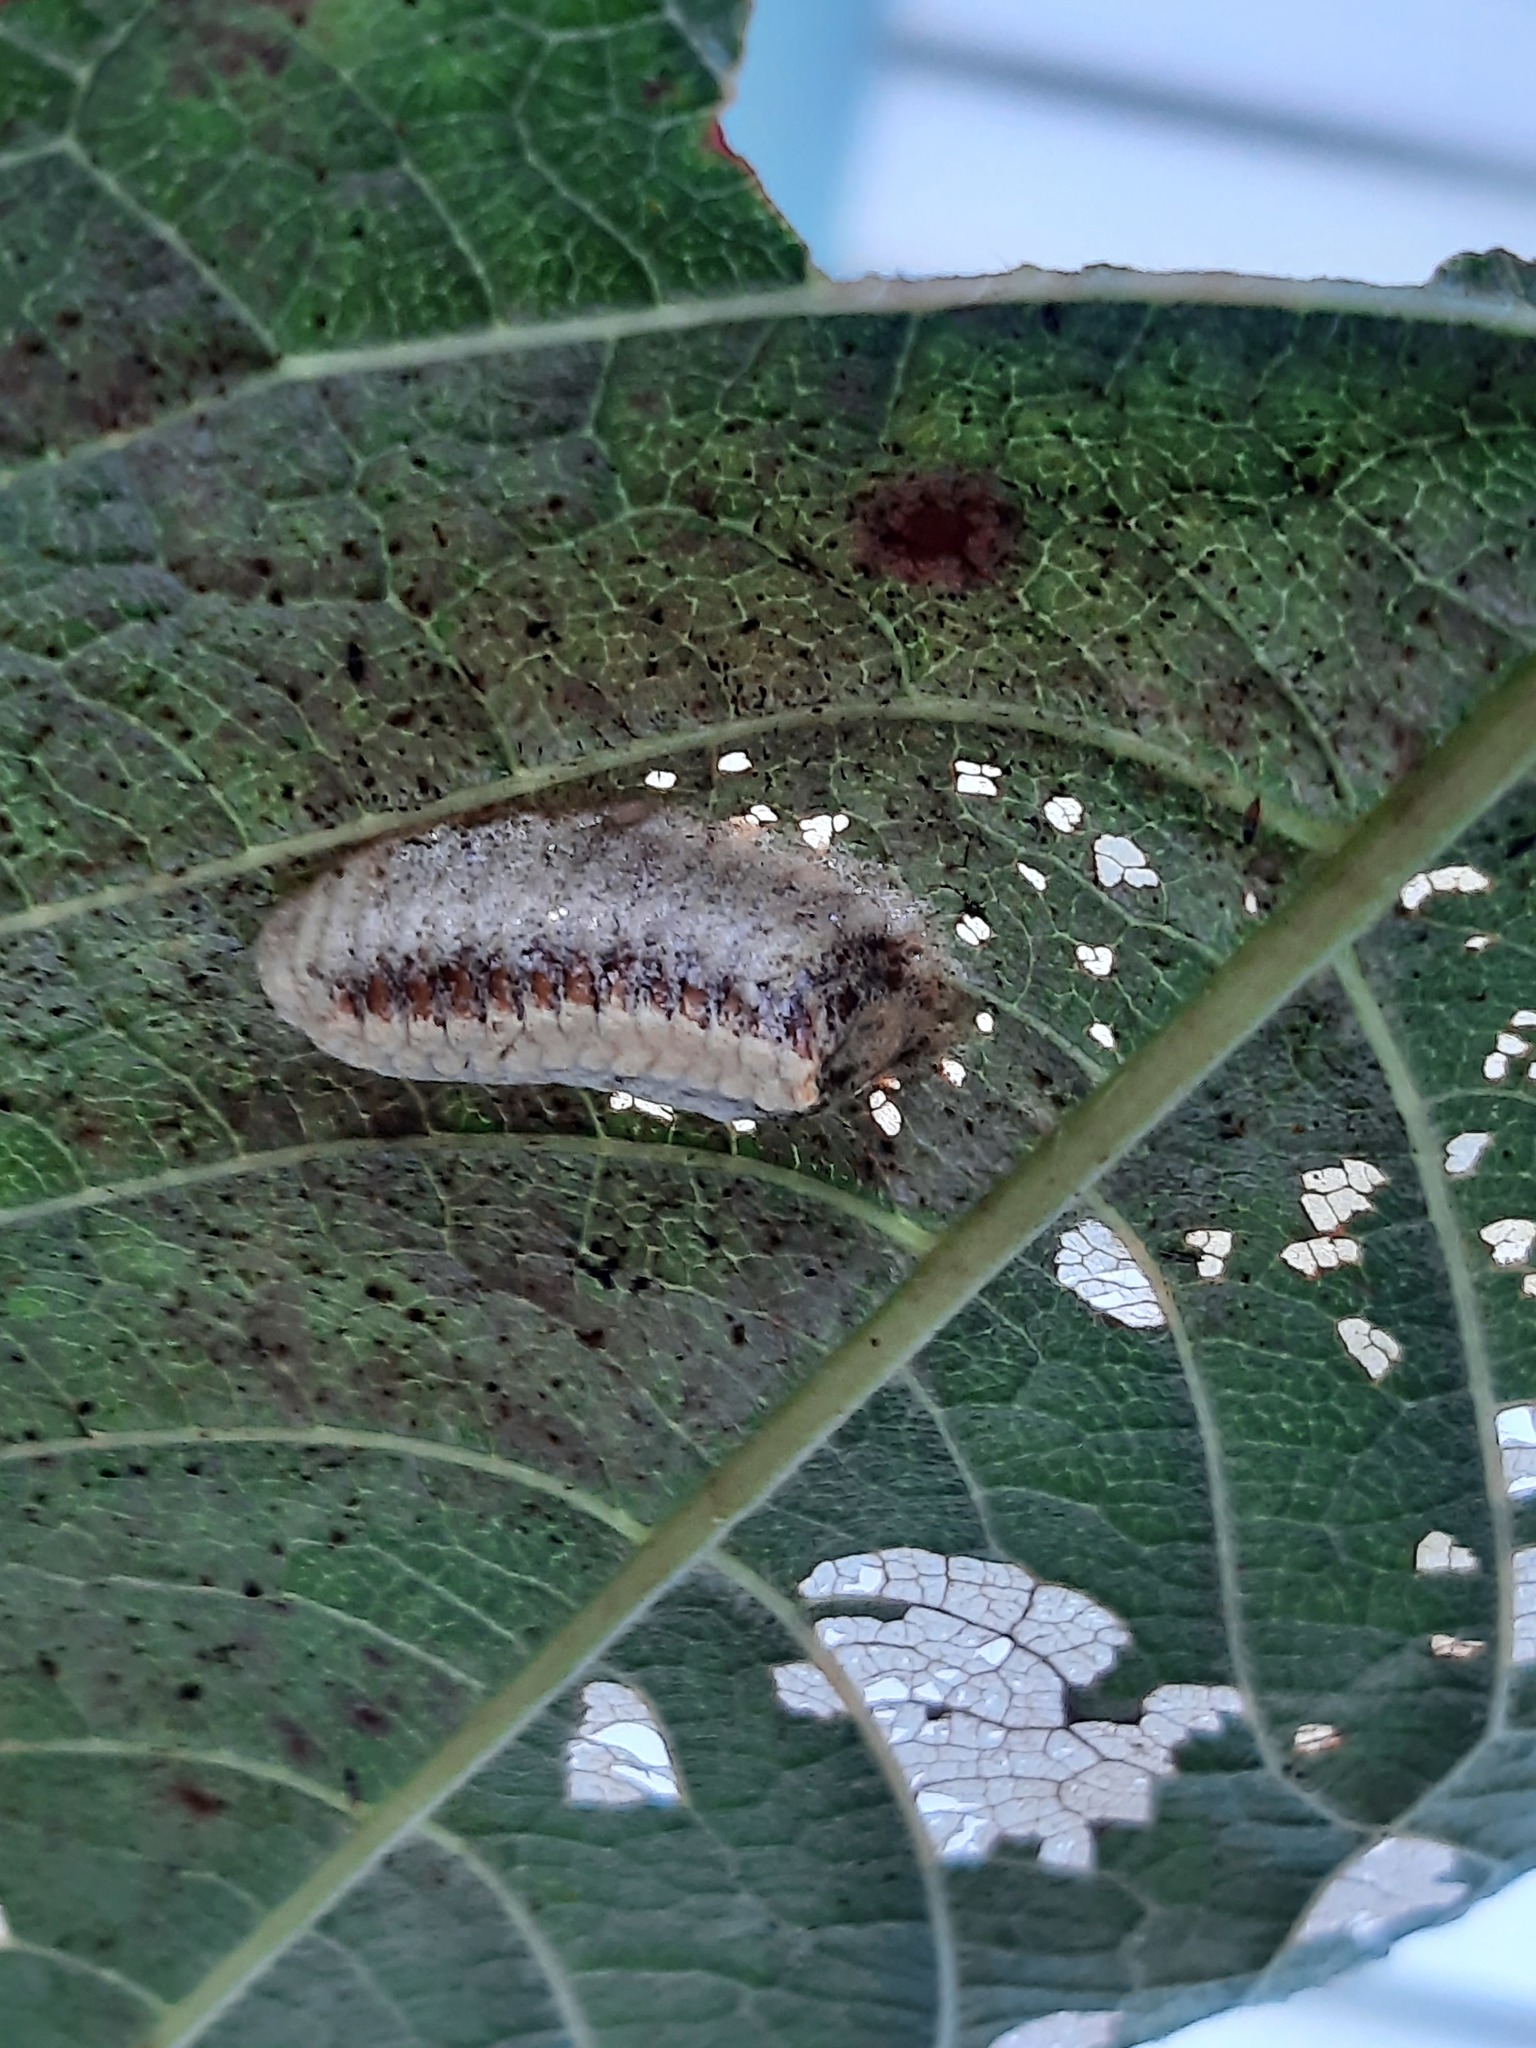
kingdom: Animalia
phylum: Arthropoda
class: Insecta
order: Mantodea
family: Mantidae
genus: Orthodera
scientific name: Orthodera novaezealandiae
